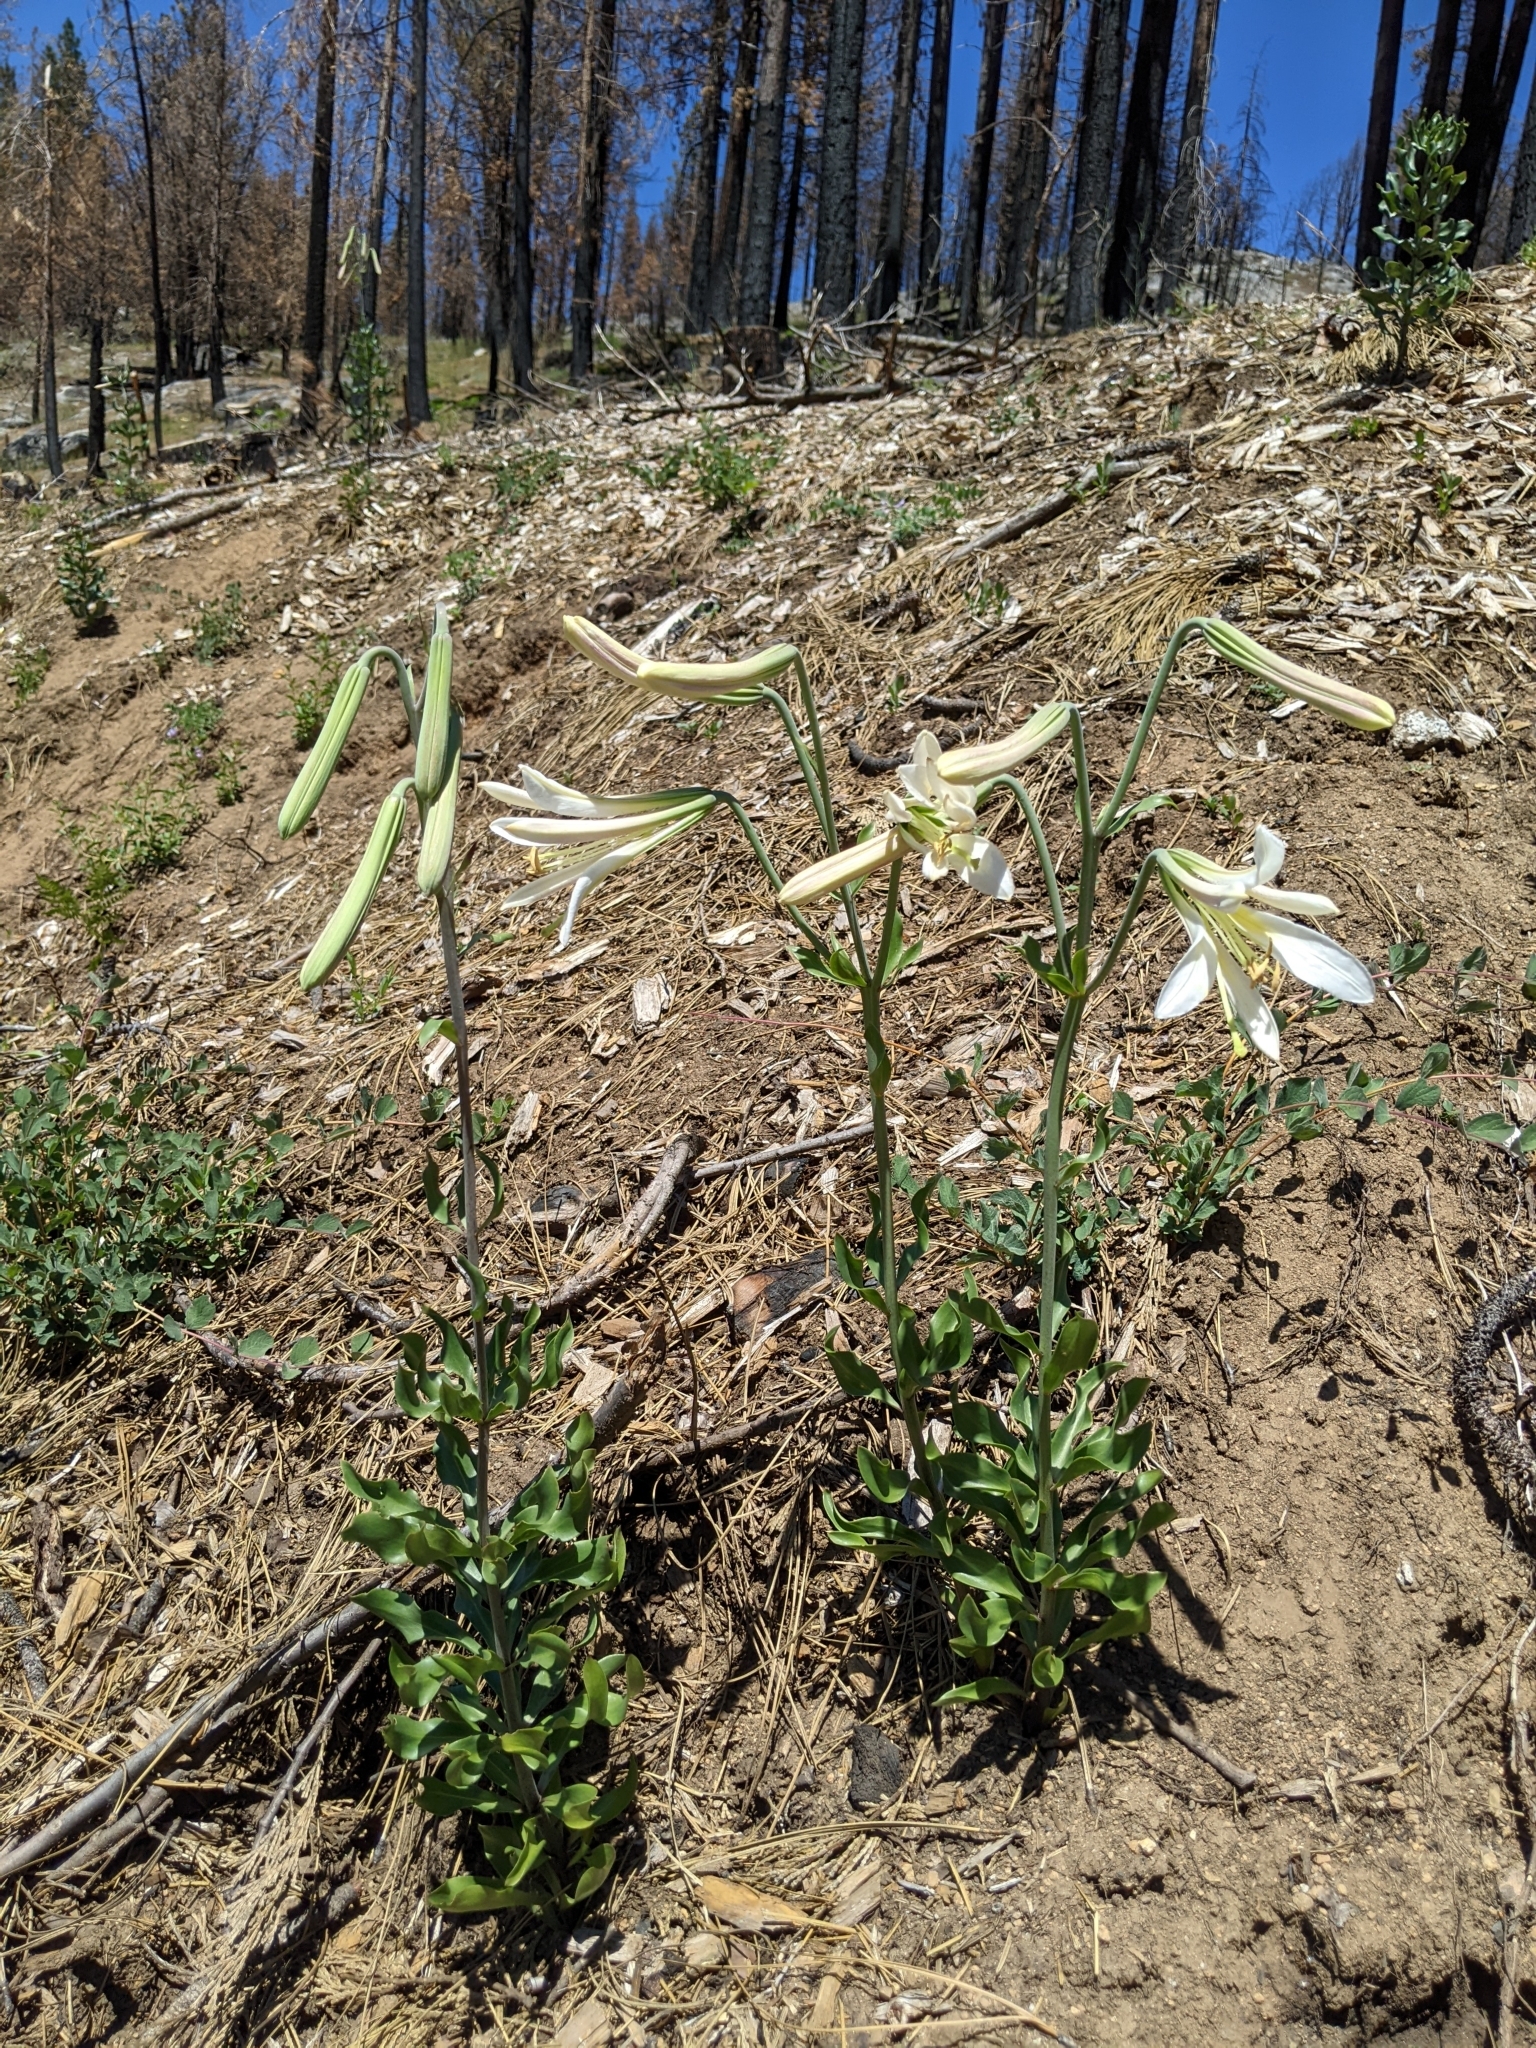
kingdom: Plantae
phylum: Tracheophyta
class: Liliopsida
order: Liliales
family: Liliaceae
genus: Lilium
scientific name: Lilium washingtonianum
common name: Washington lily
